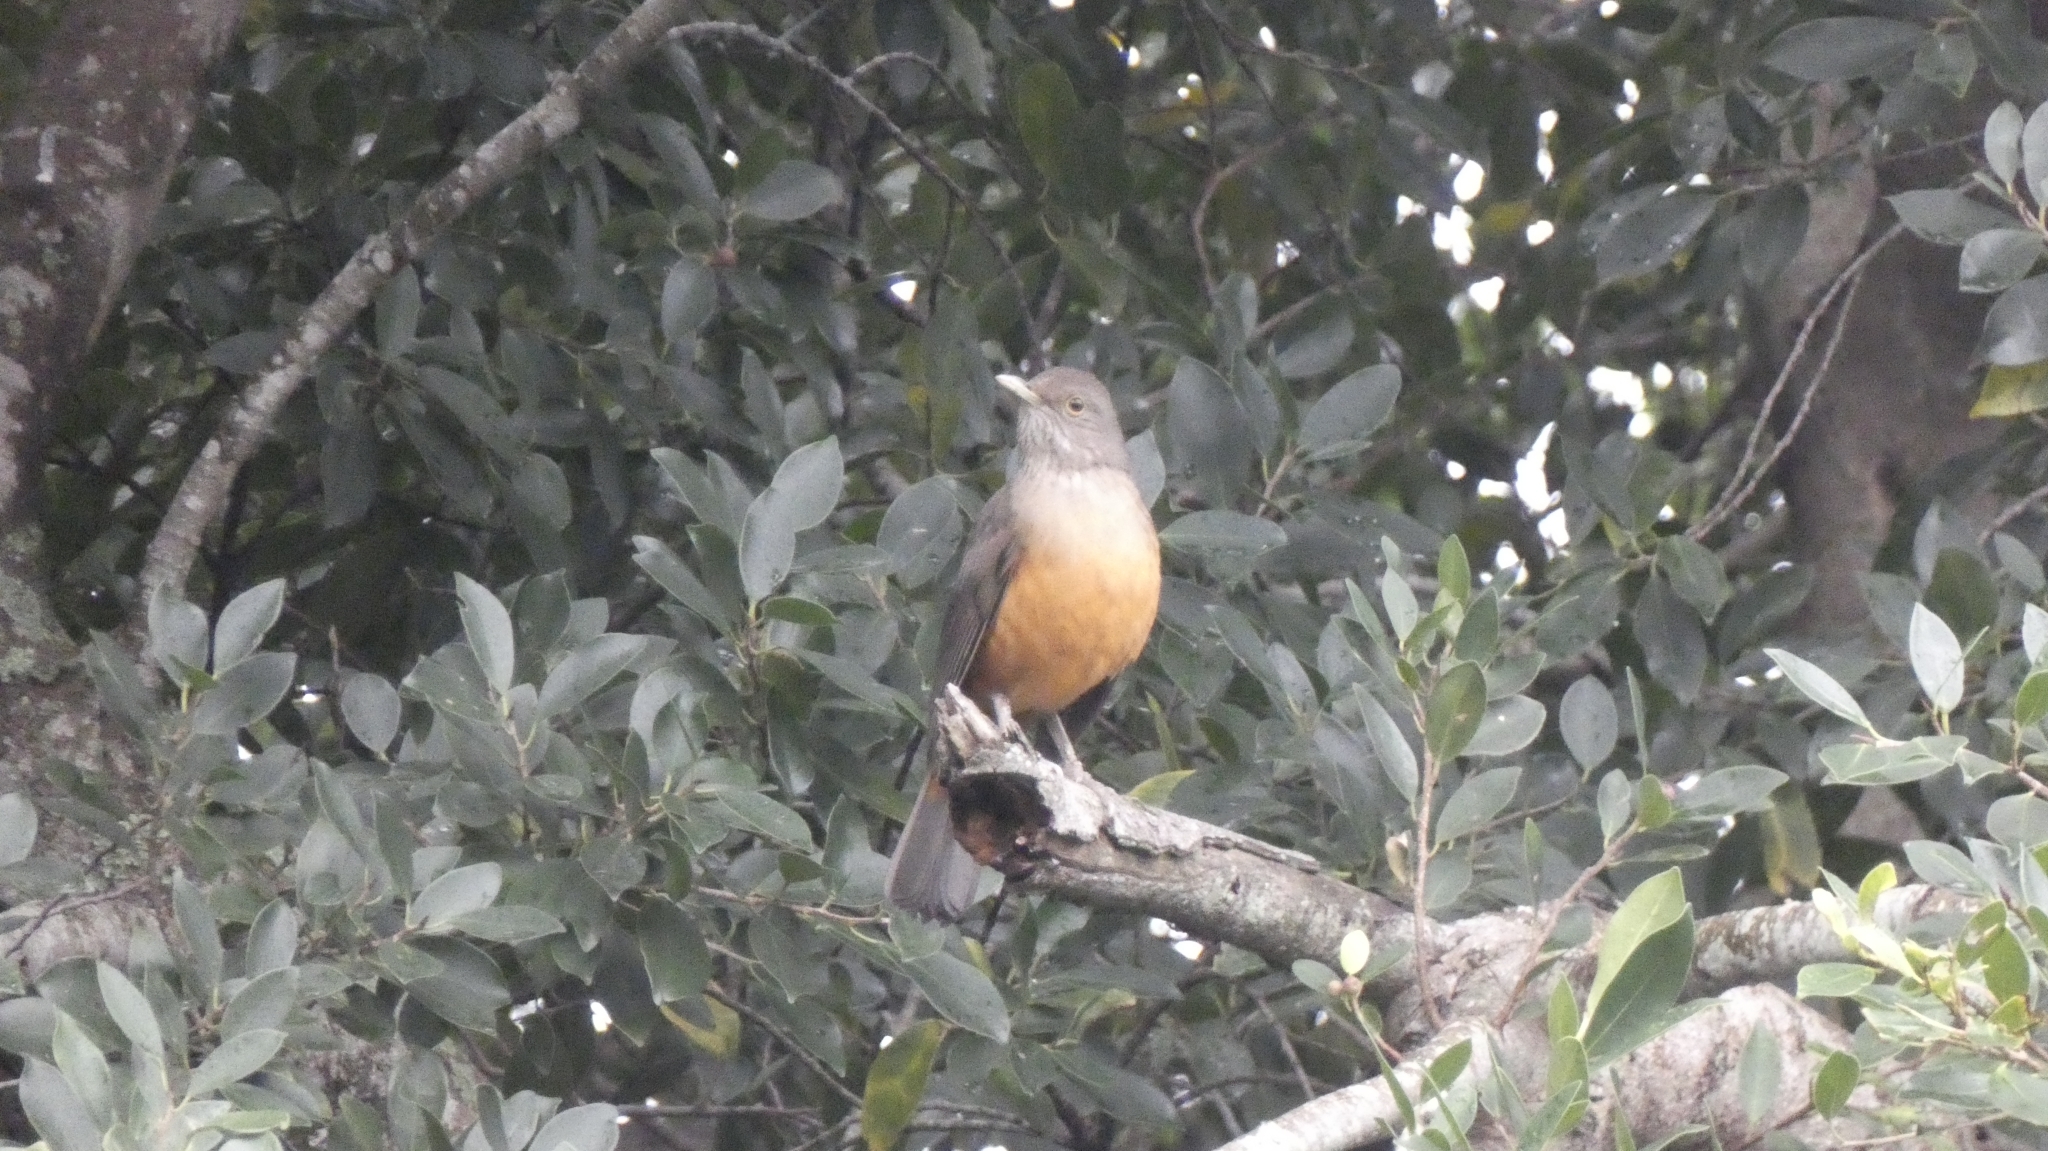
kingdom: Animalia
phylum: Chordata
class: Aves
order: Passeriformes
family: Turdidae
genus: Turdus
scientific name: Turdus rufiventris
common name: Rufous-bellied thrush
